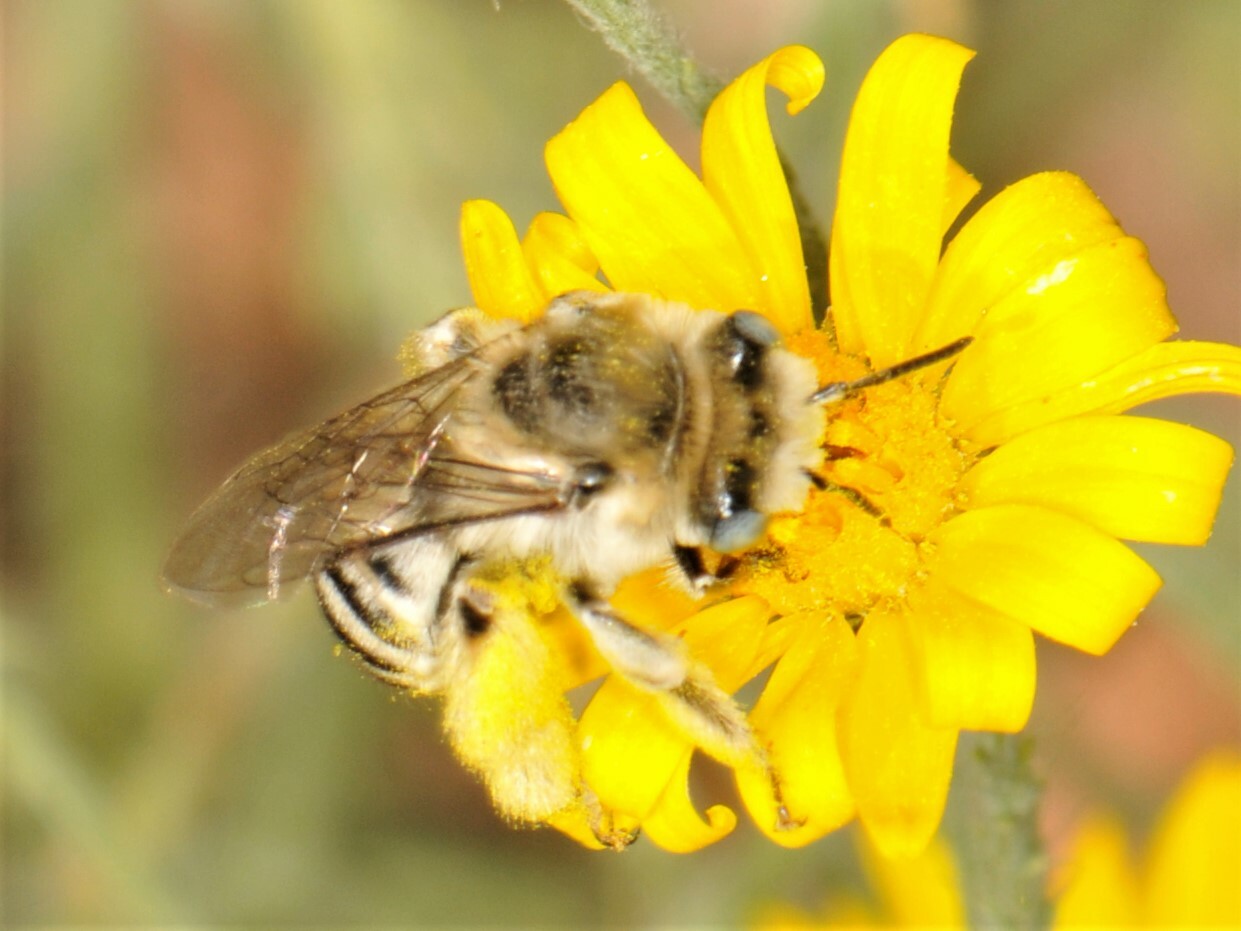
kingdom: Animalia
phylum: Arthropoda
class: Insecta
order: Hymenoptera
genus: Eumelissodes
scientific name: Eumelissodes
